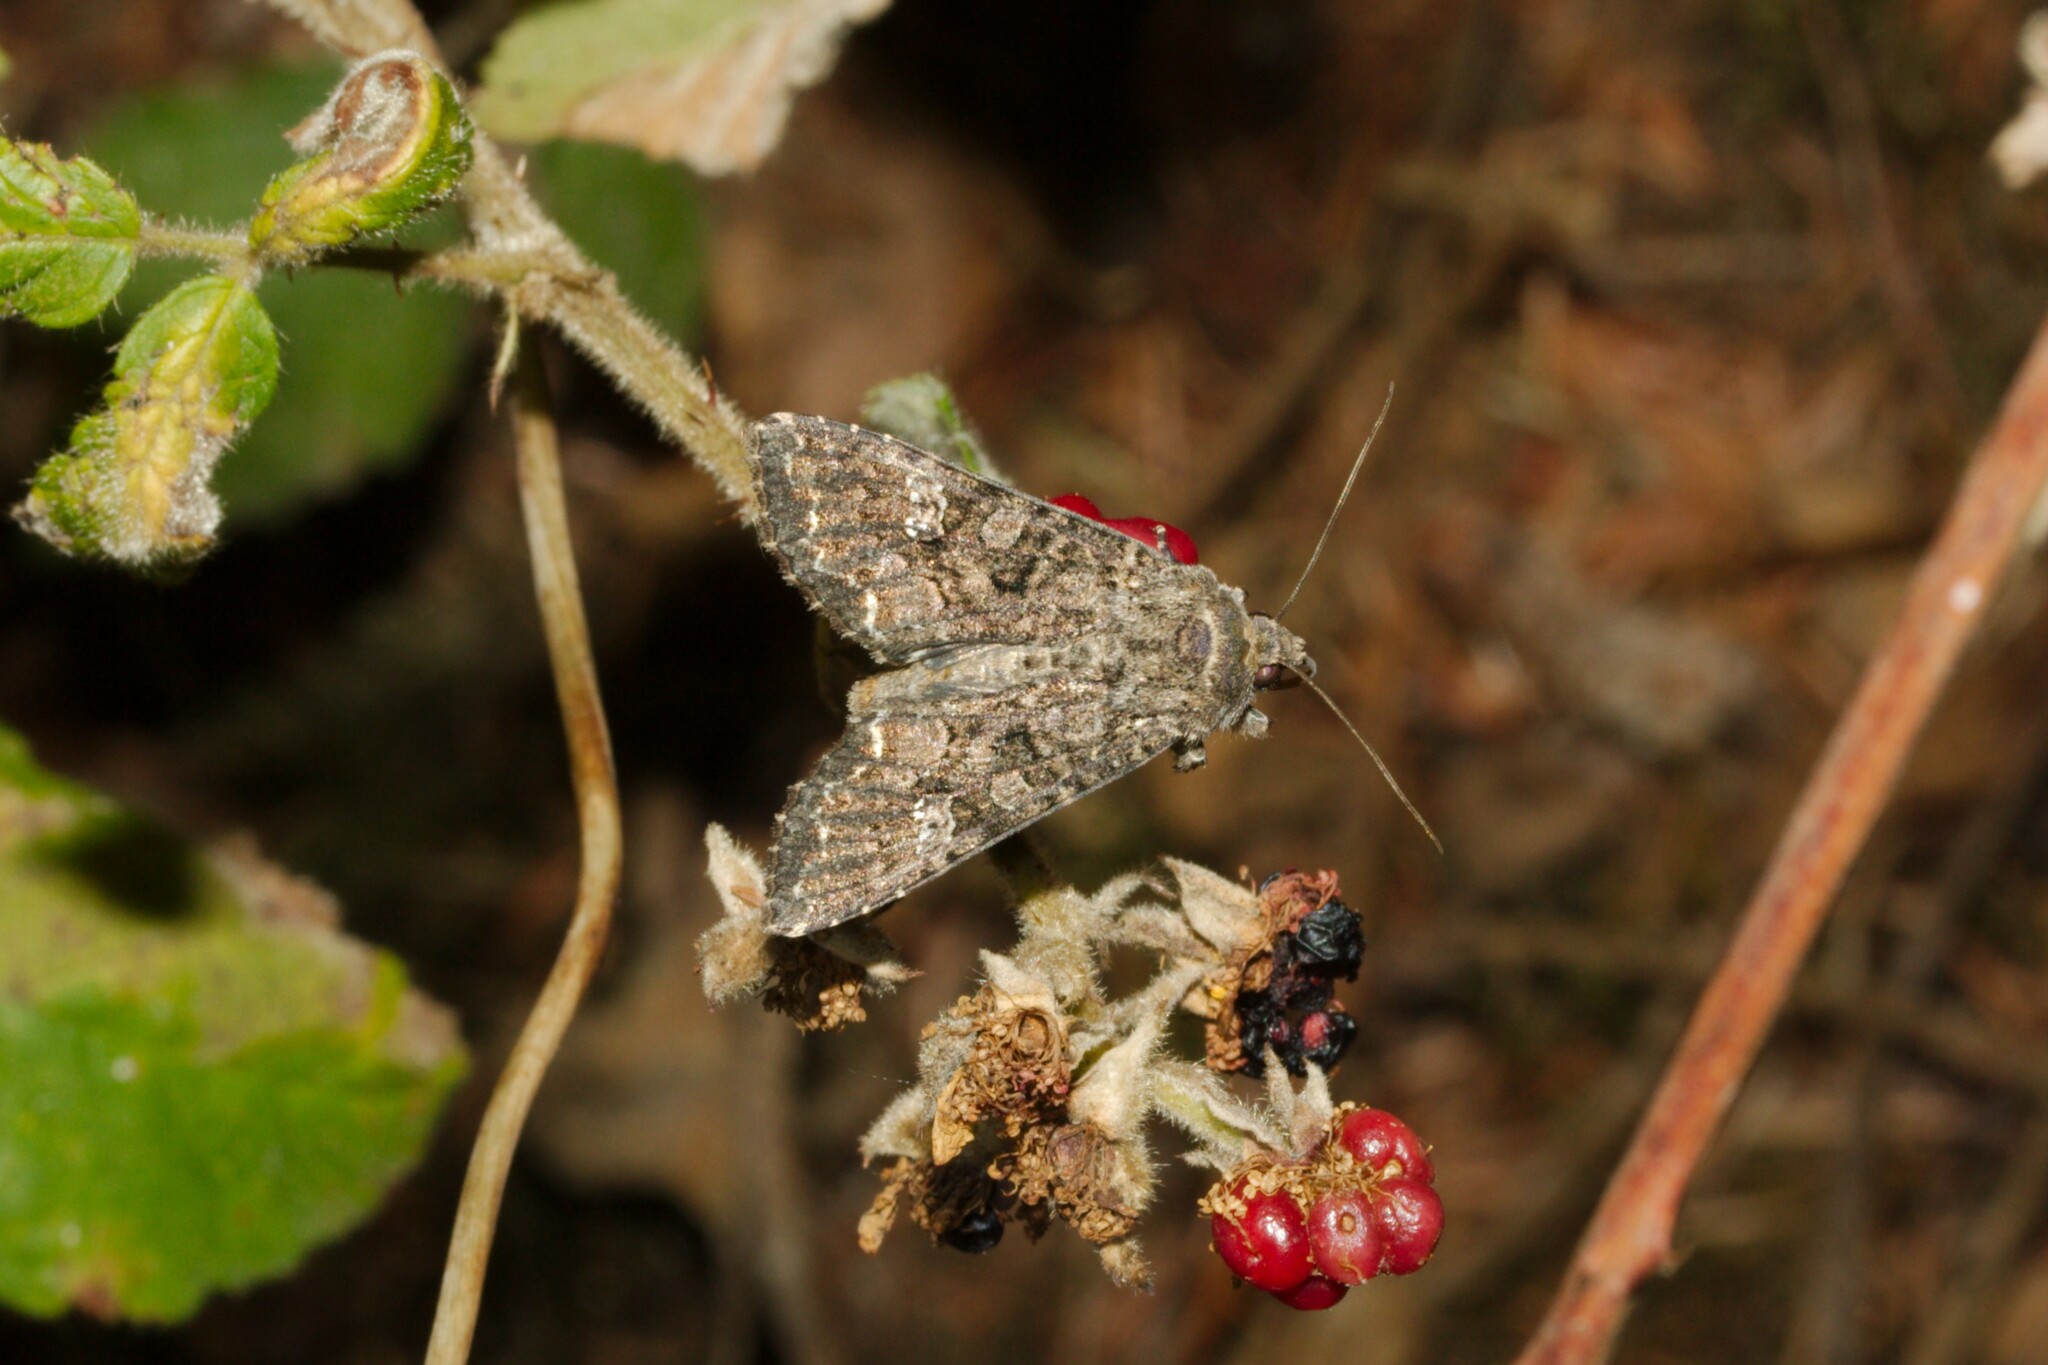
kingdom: Animalia
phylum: Arthropoda
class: Insecta
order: Lepidoptera
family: Noctuidae
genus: Mamestra
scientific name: Mamestra brassicae
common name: Cabbage moth
